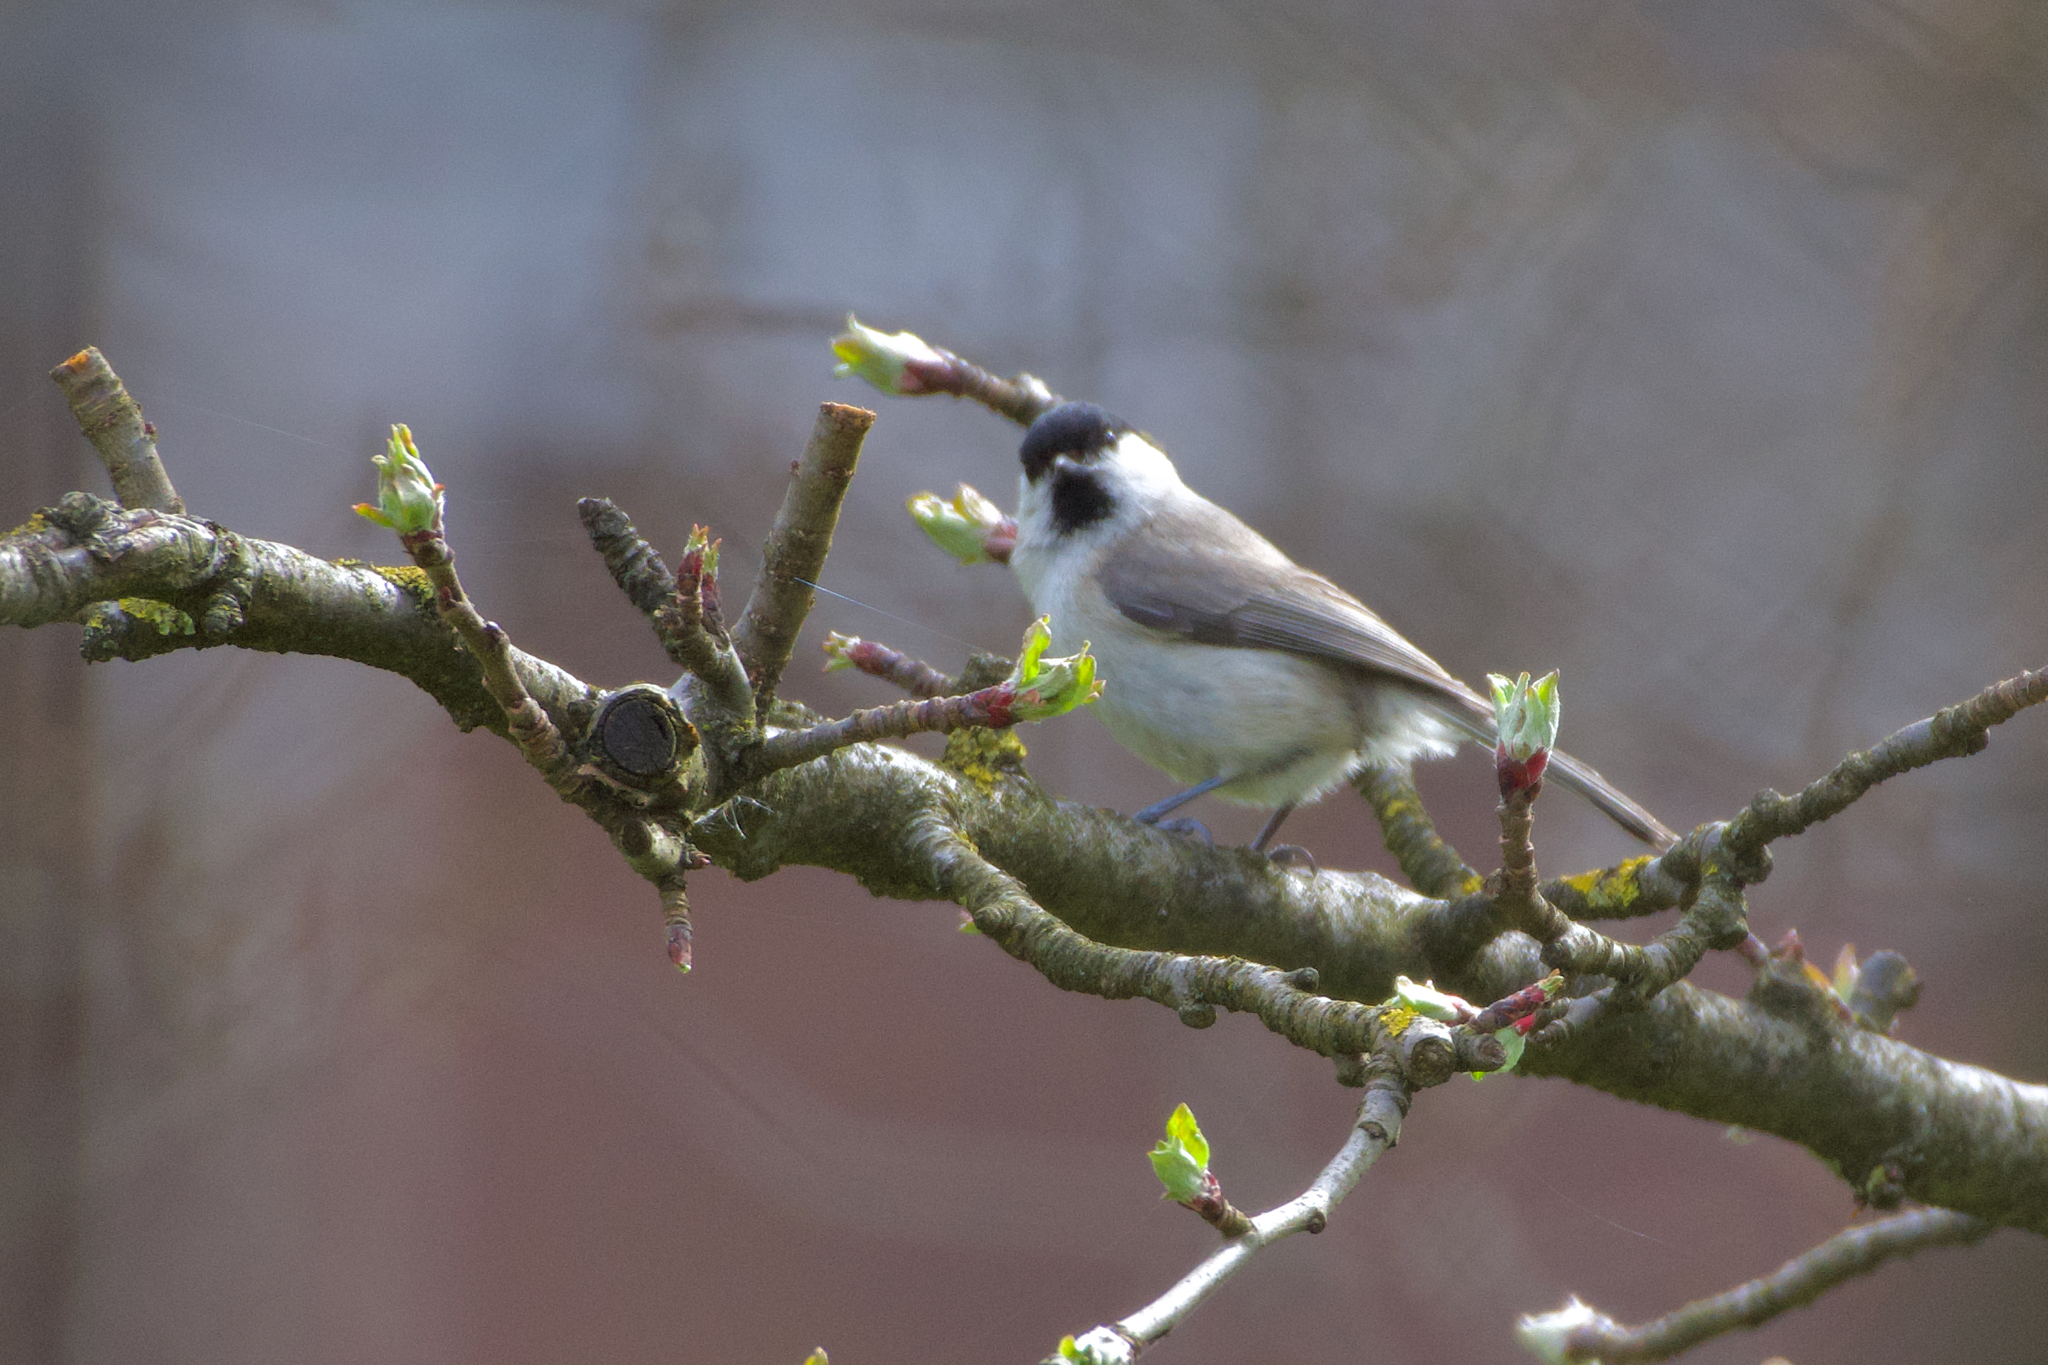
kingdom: Animalia
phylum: Chordata
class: Aves
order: Passeriformes
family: Paridae
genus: Poecile
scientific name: Poecile palustris
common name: Marsh tit
